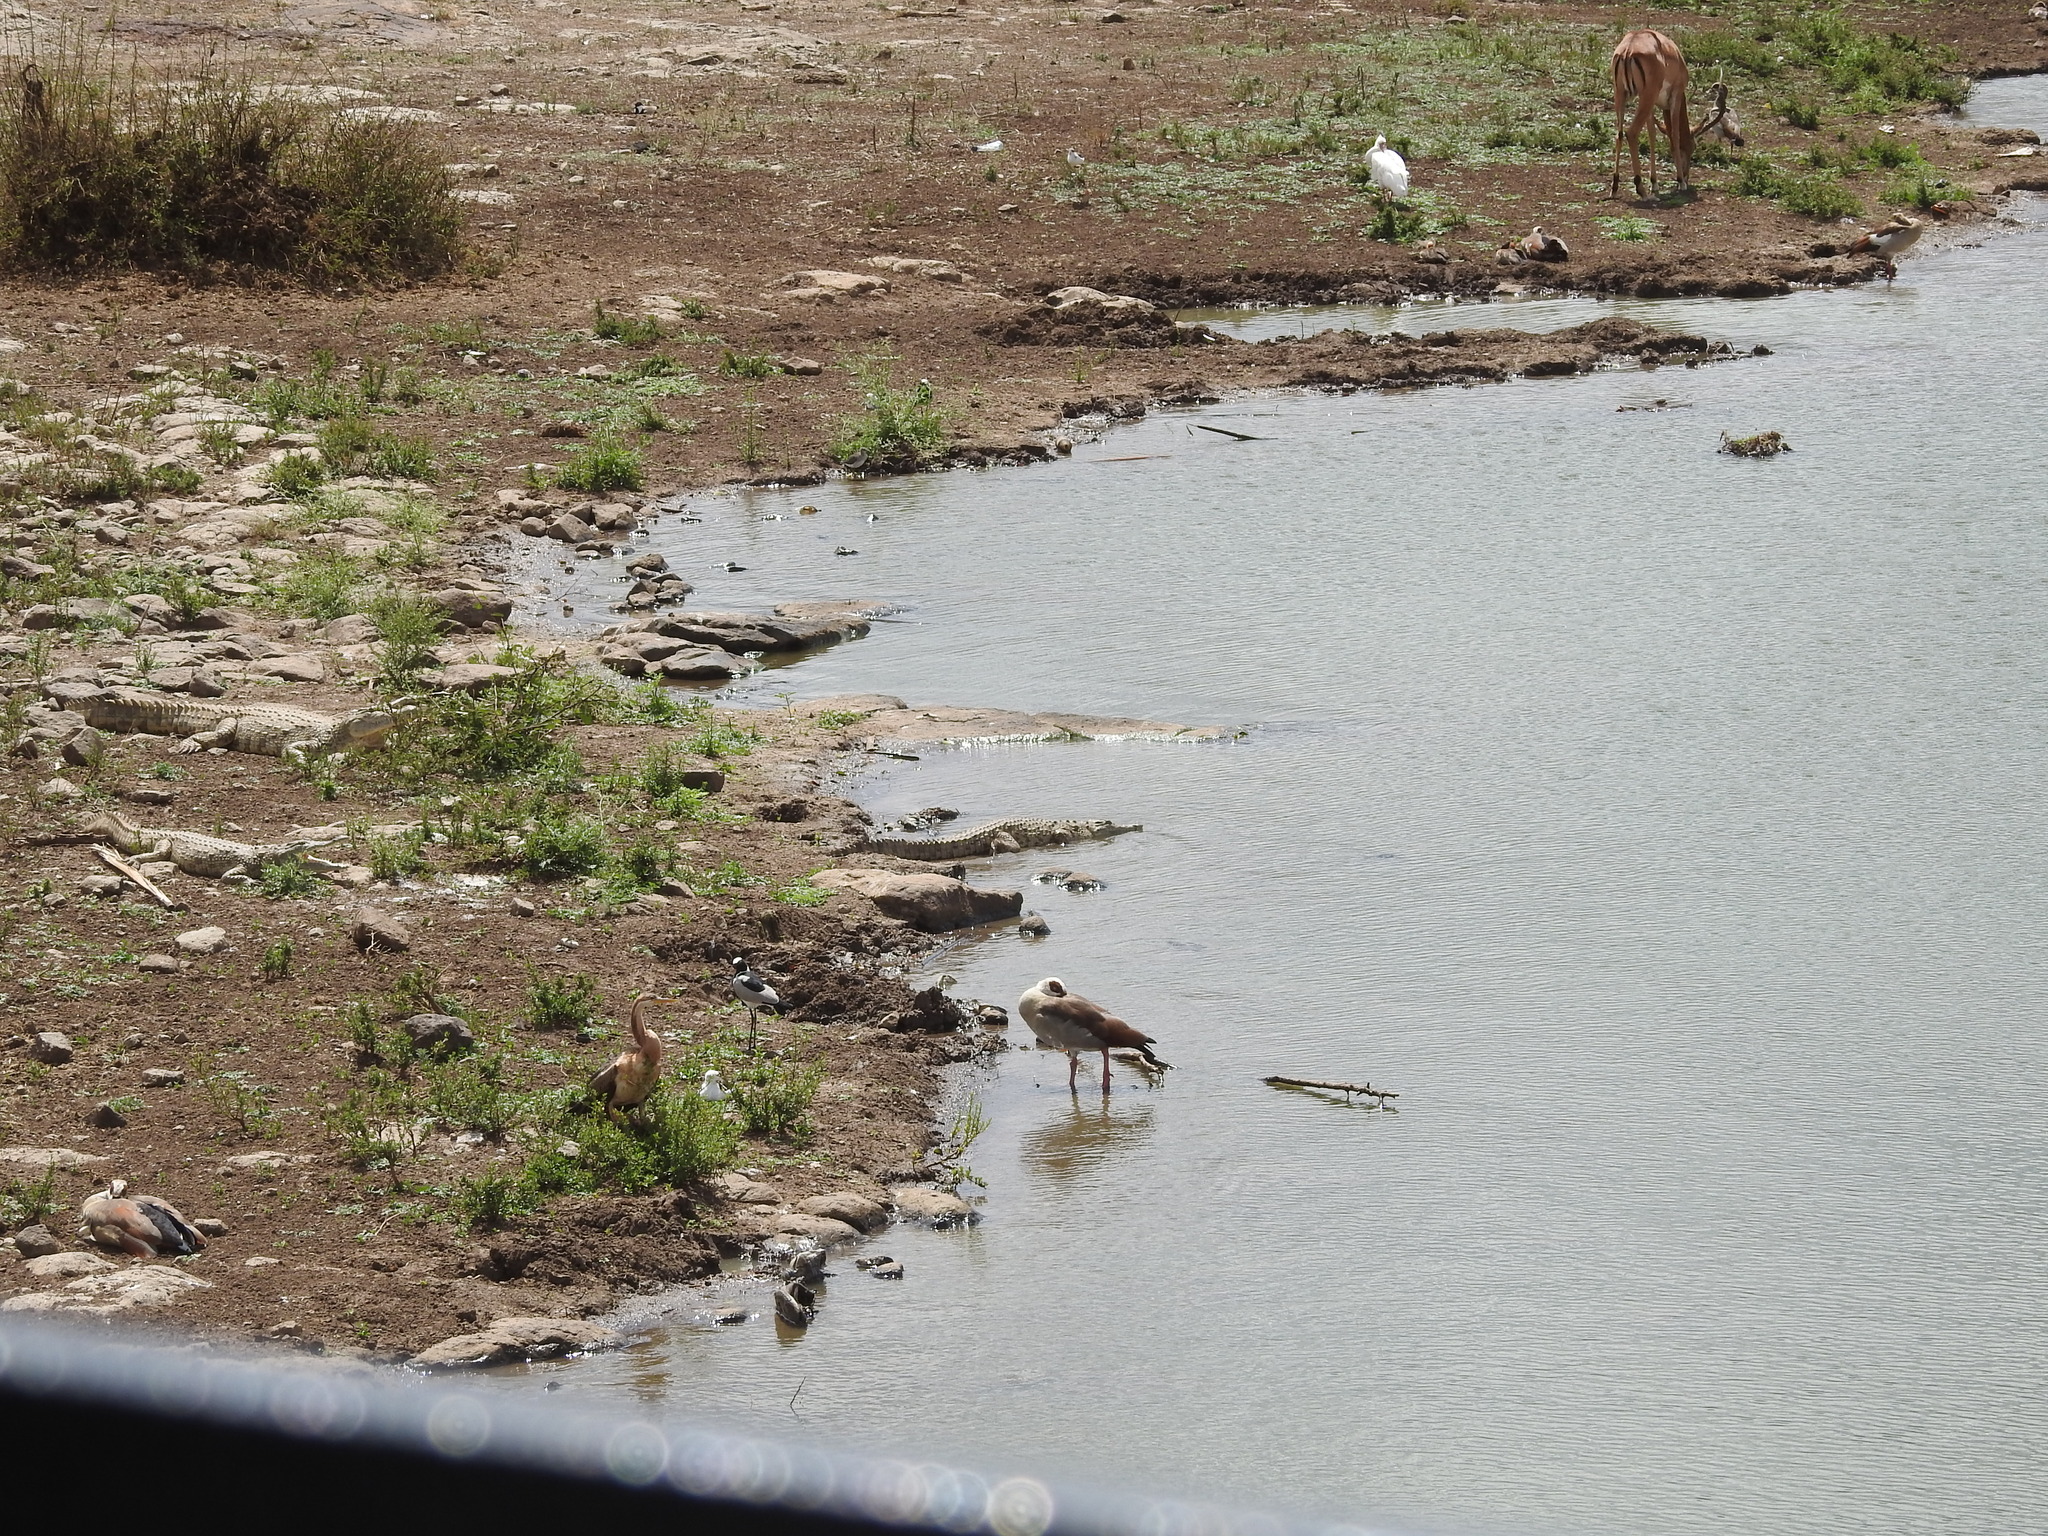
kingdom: Animalia
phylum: Chordata
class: Crocodylia
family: Crocodylidae
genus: Crocodylus
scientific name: Crocodylus niloticus
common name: Nile crocodile
